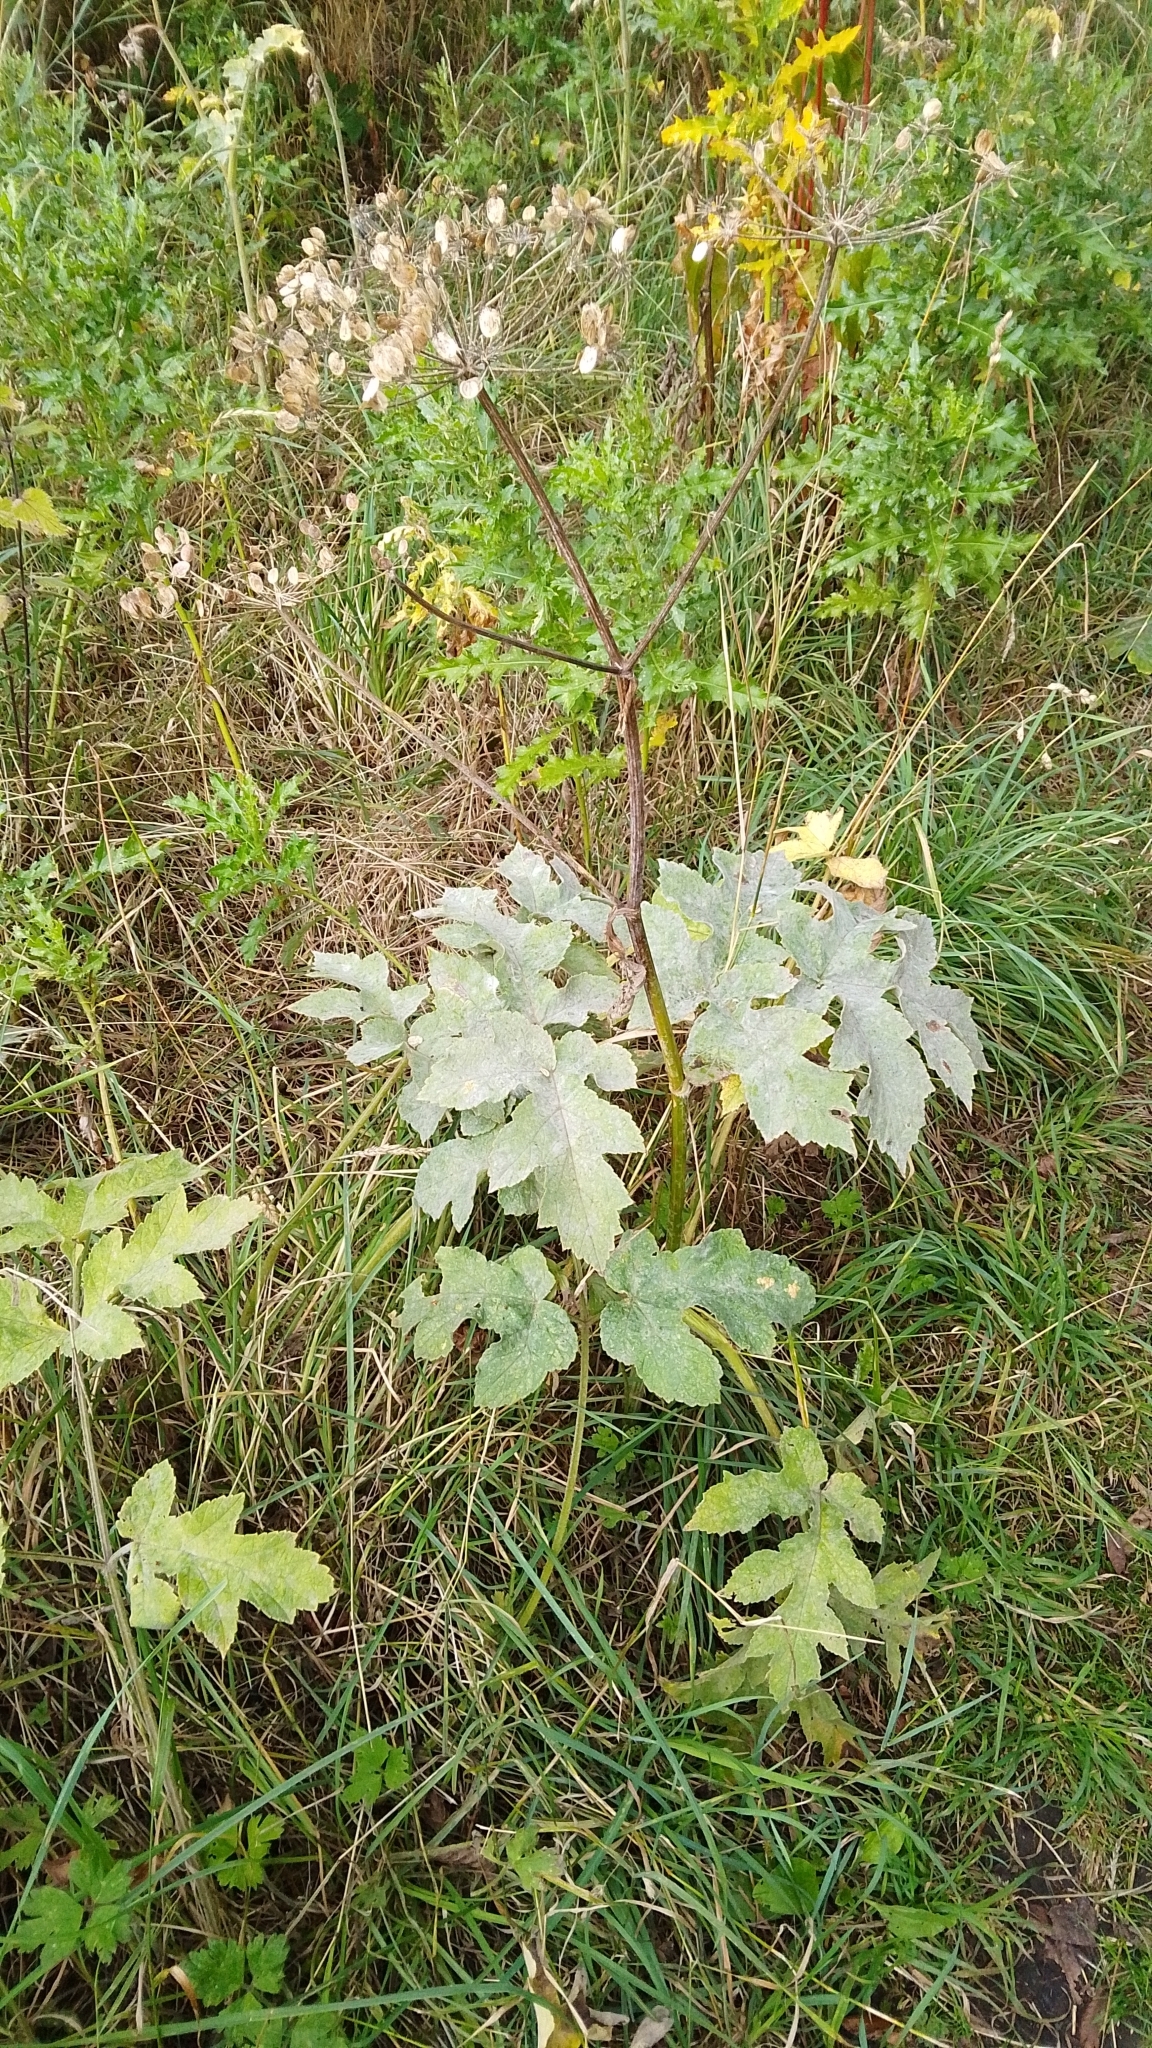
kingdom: Plantae
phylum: Tracheophyta
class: Magnoliopsida
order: Apiales
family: Apiaceae
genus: Heracleum
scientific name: Heracleum sphondylium
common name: Hogweed
